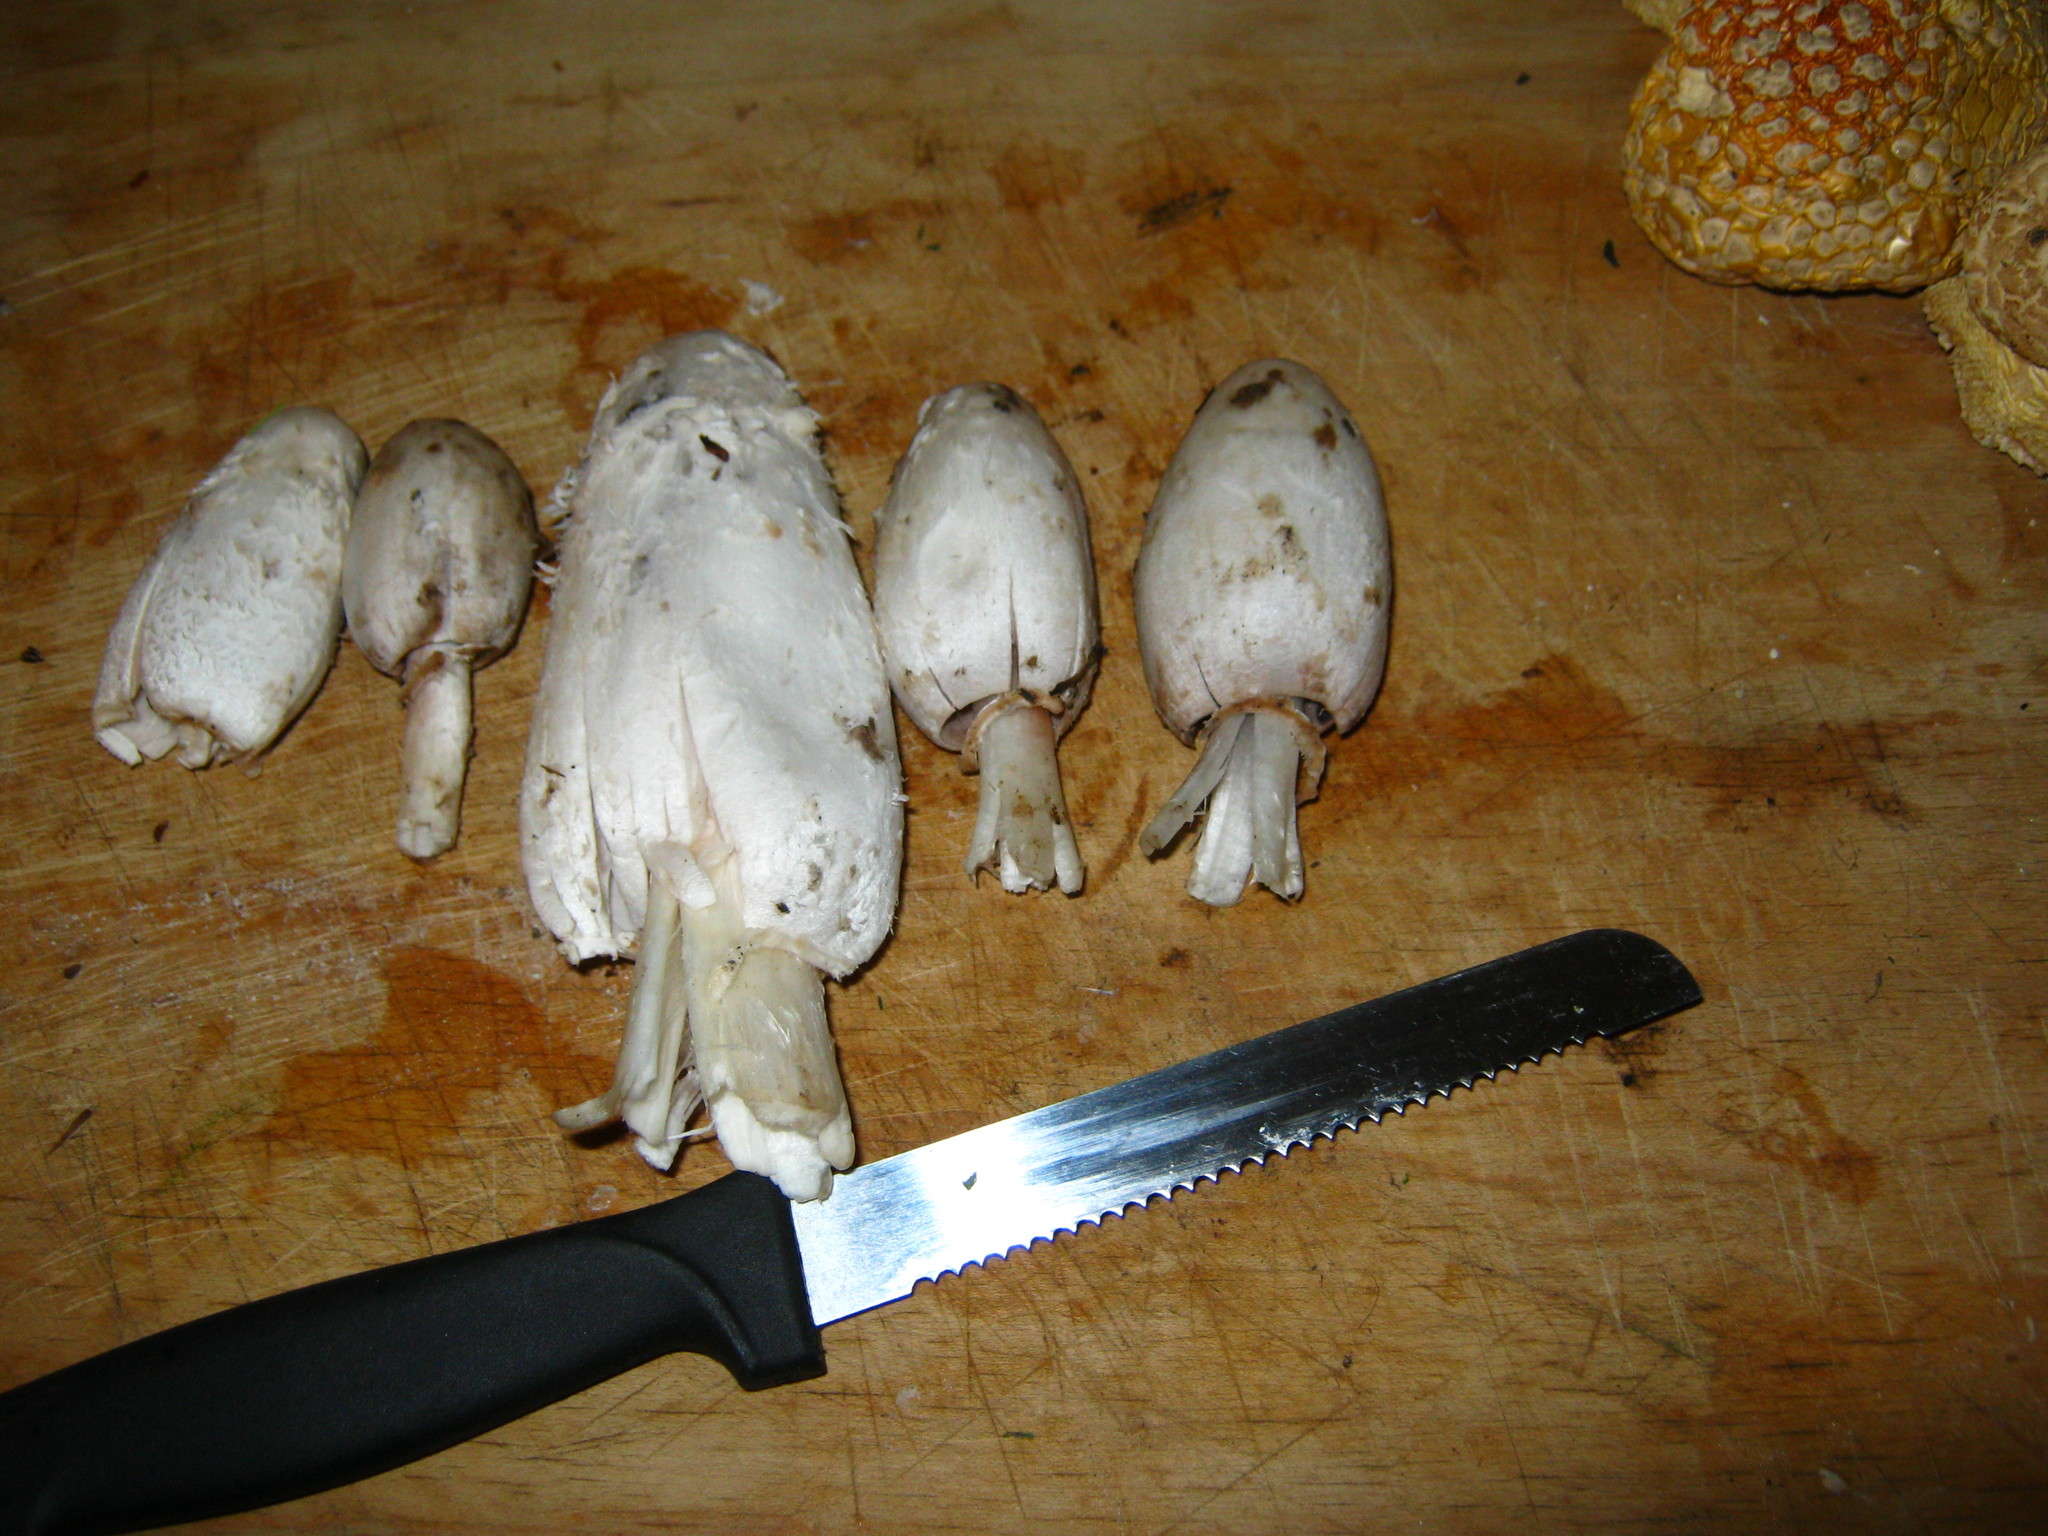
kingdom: Fungi
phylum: Basidiomycota
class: Agaricomycetes
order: Agaricales
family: Agaricaceae
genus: Coprinus
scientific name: Coprinus comatus
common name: Lawyer's wig
